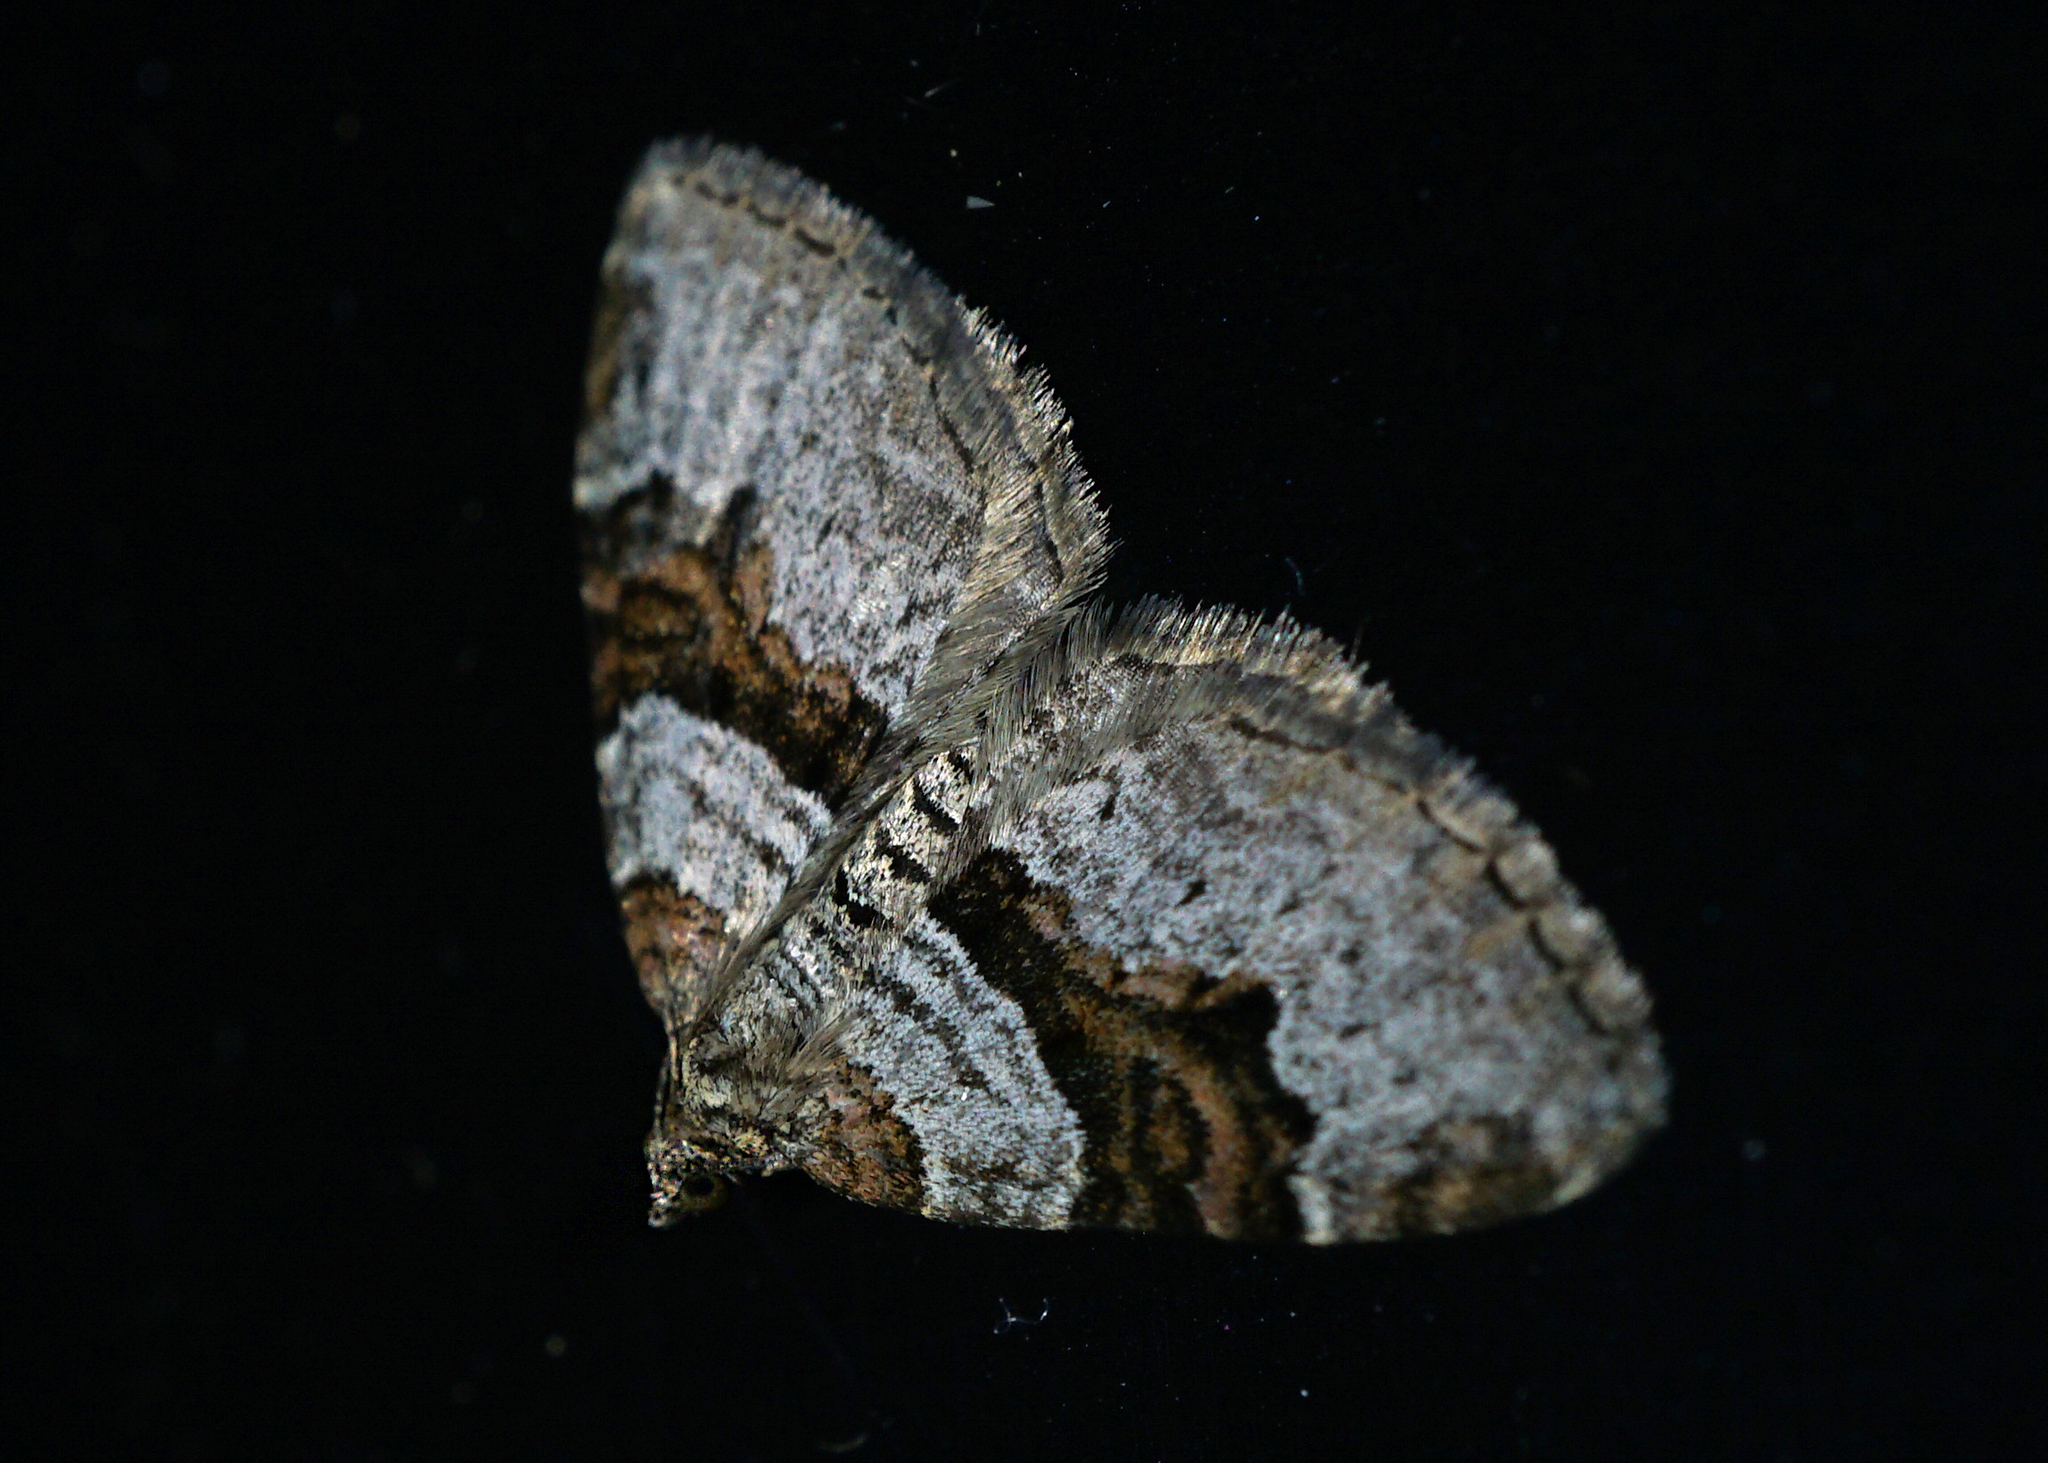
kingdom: Animalia
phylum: Arthropoda
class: Insecta
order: Lepidoptera
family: Geometridae
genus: Xanthorhoe
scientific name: Xanthorhoe designata
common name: Flame carpet
